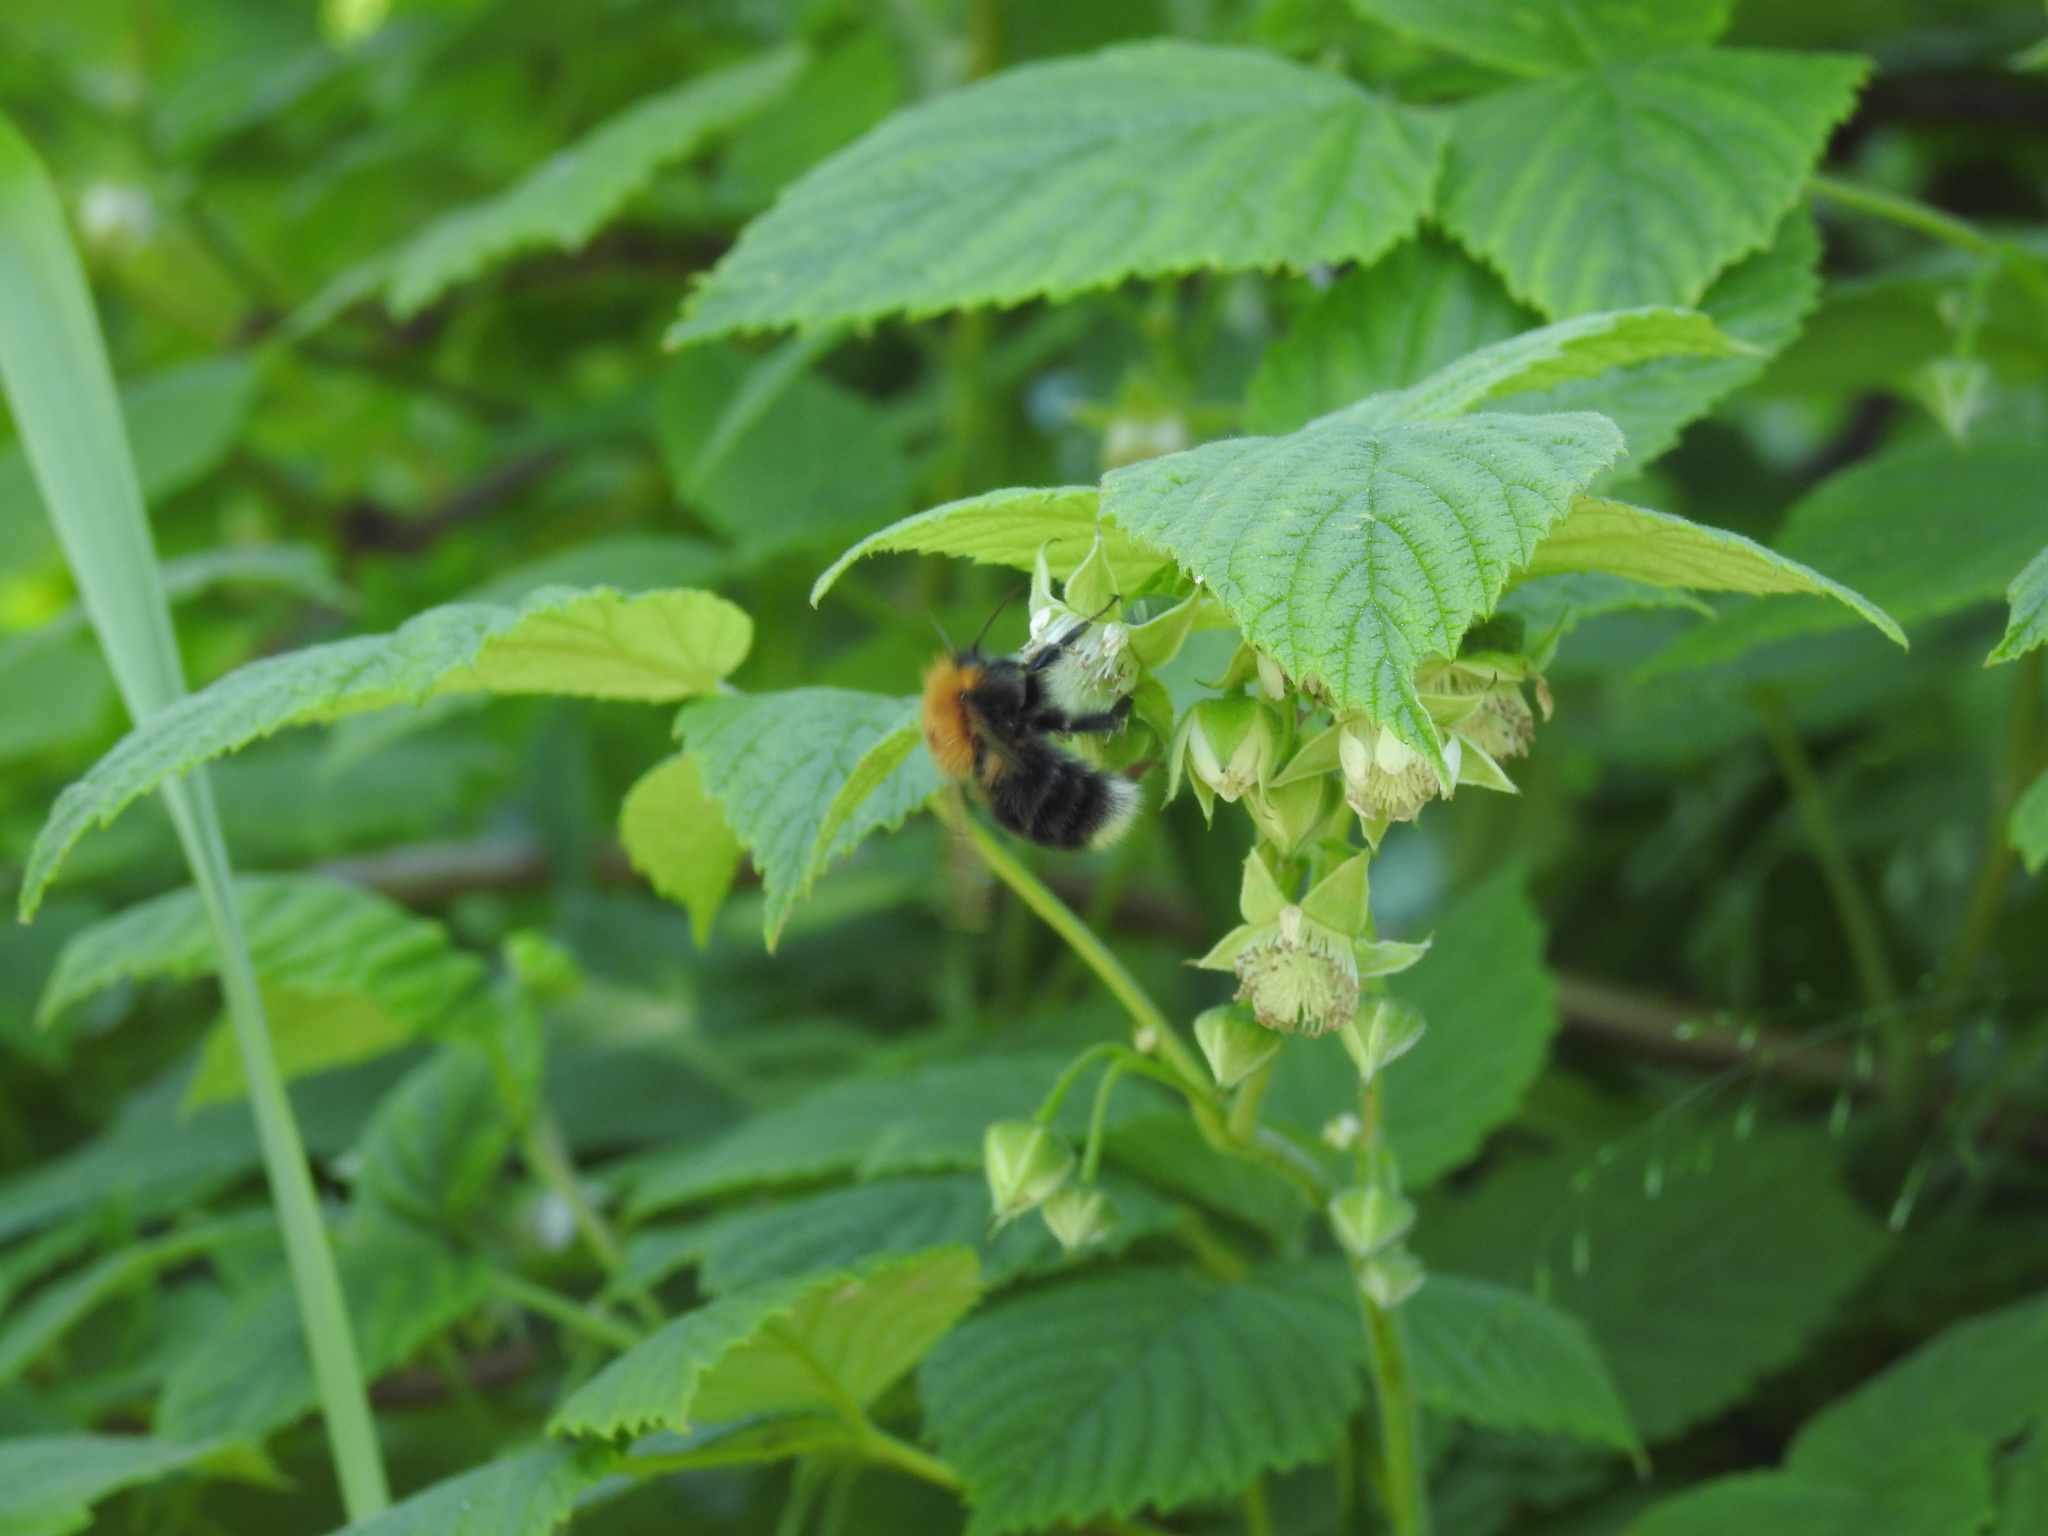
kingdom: Animalia
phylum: Arthropoda
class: Insecta
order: Hymenoptera
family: Apidae
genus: Bombus
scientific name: Bombus hypnorum
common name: New garden bumblebee
